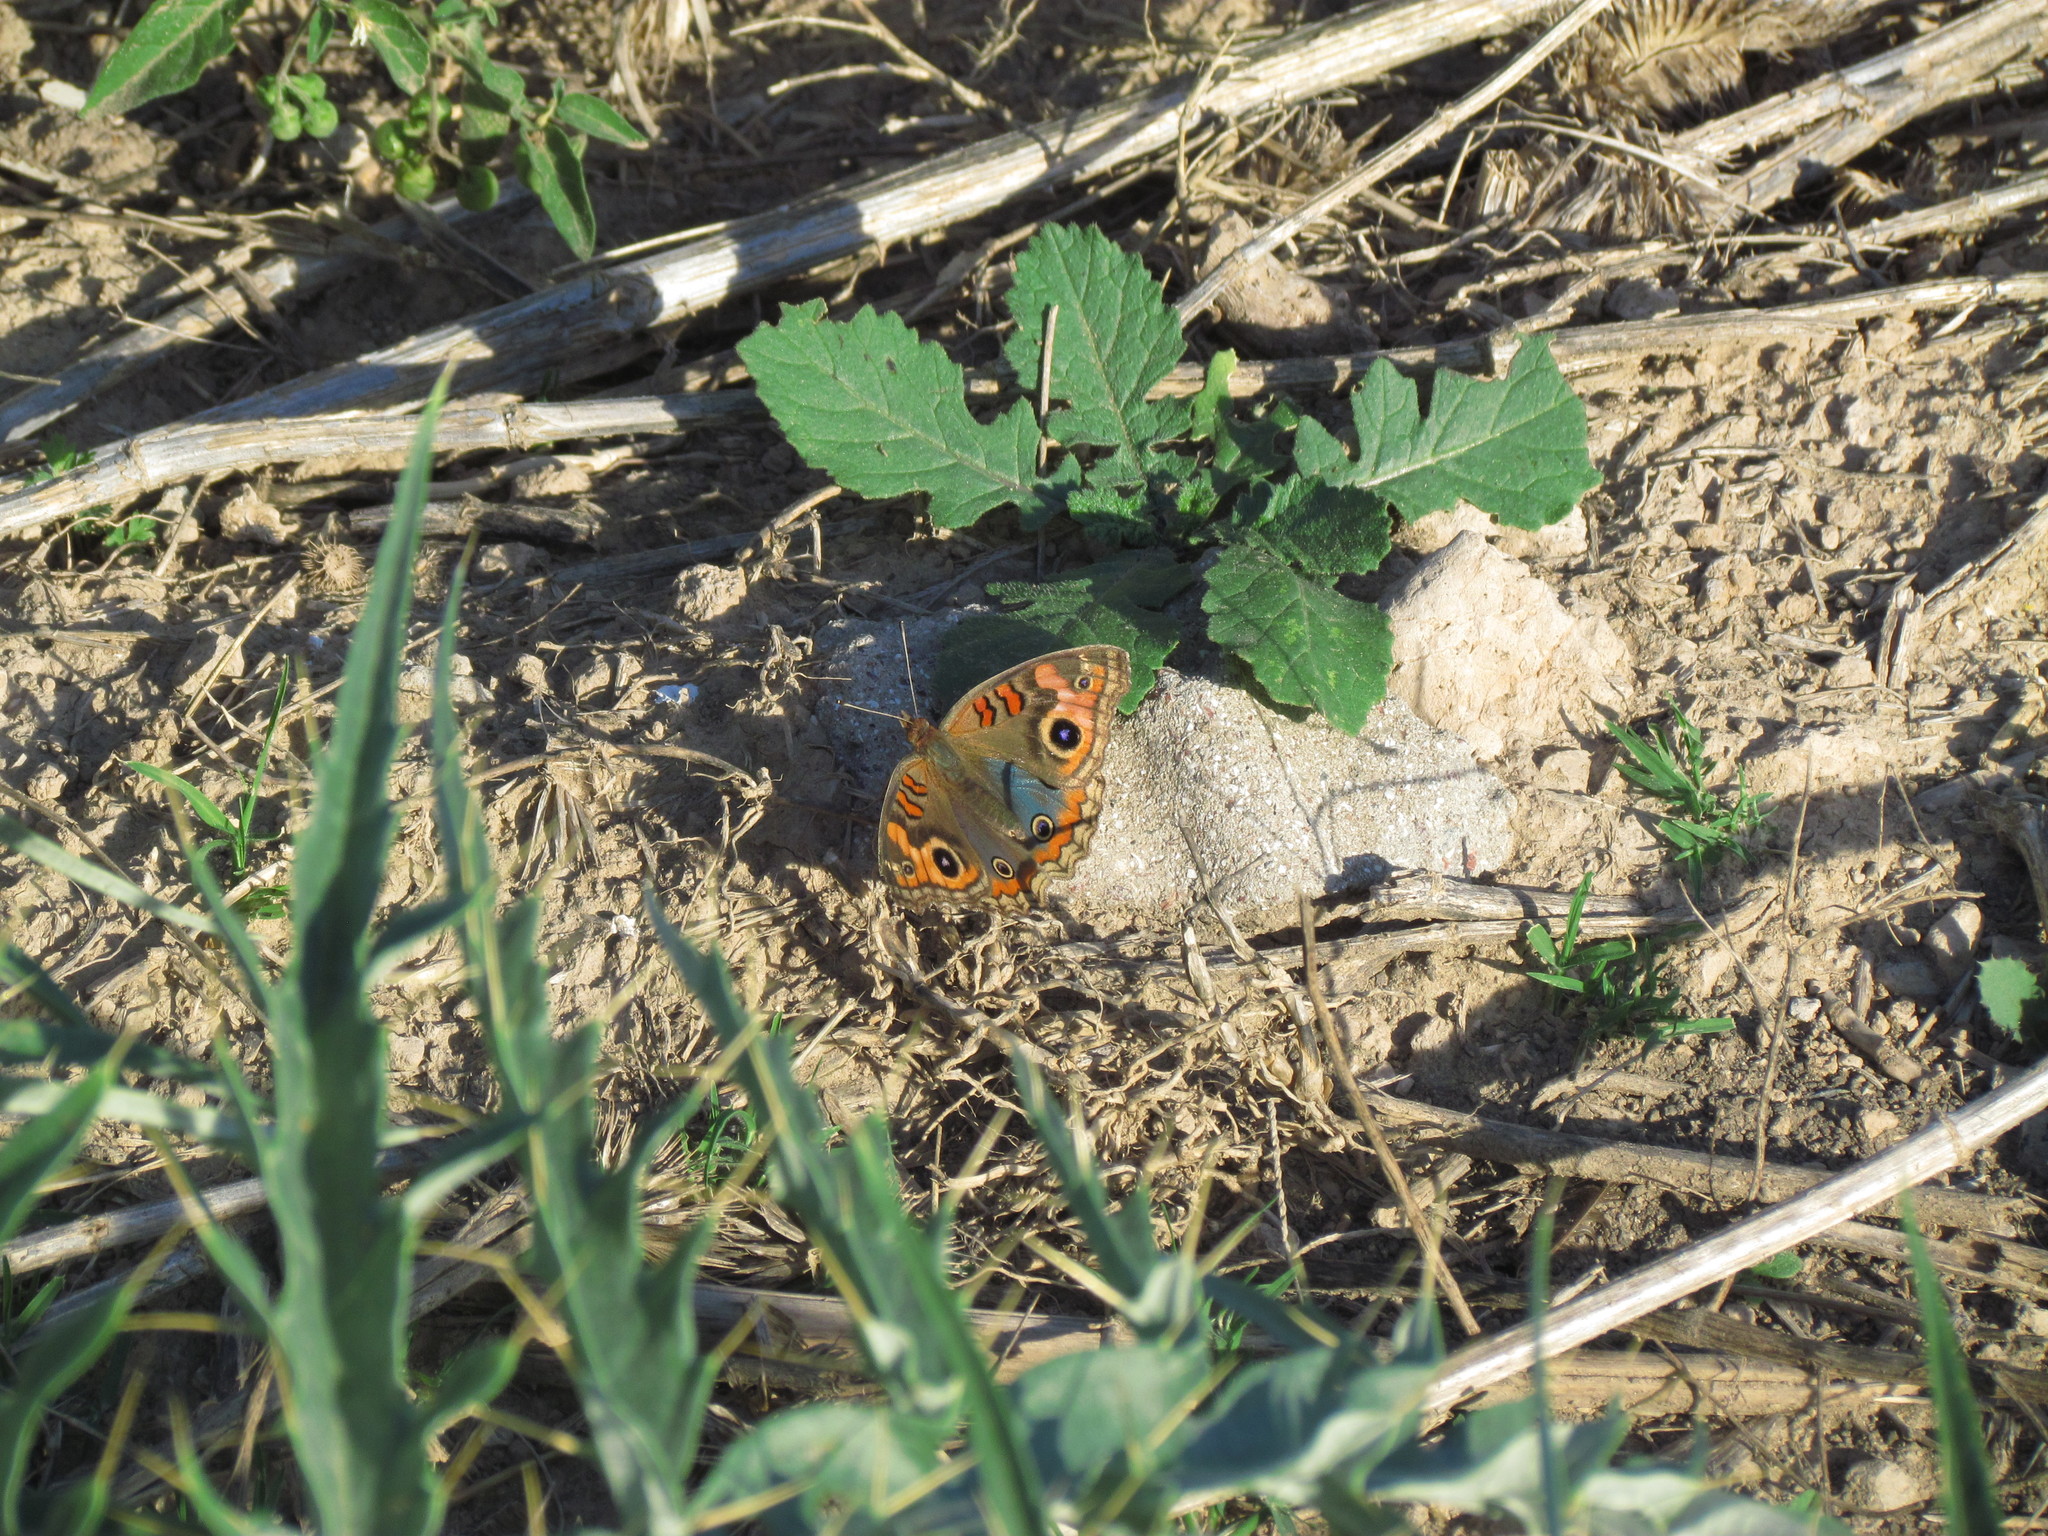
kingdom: Animalia
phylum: Arthropoda
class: Insecta
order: Lepidoptera
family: Nymphalidae
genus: Junonia
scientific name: Junonia lavinia
